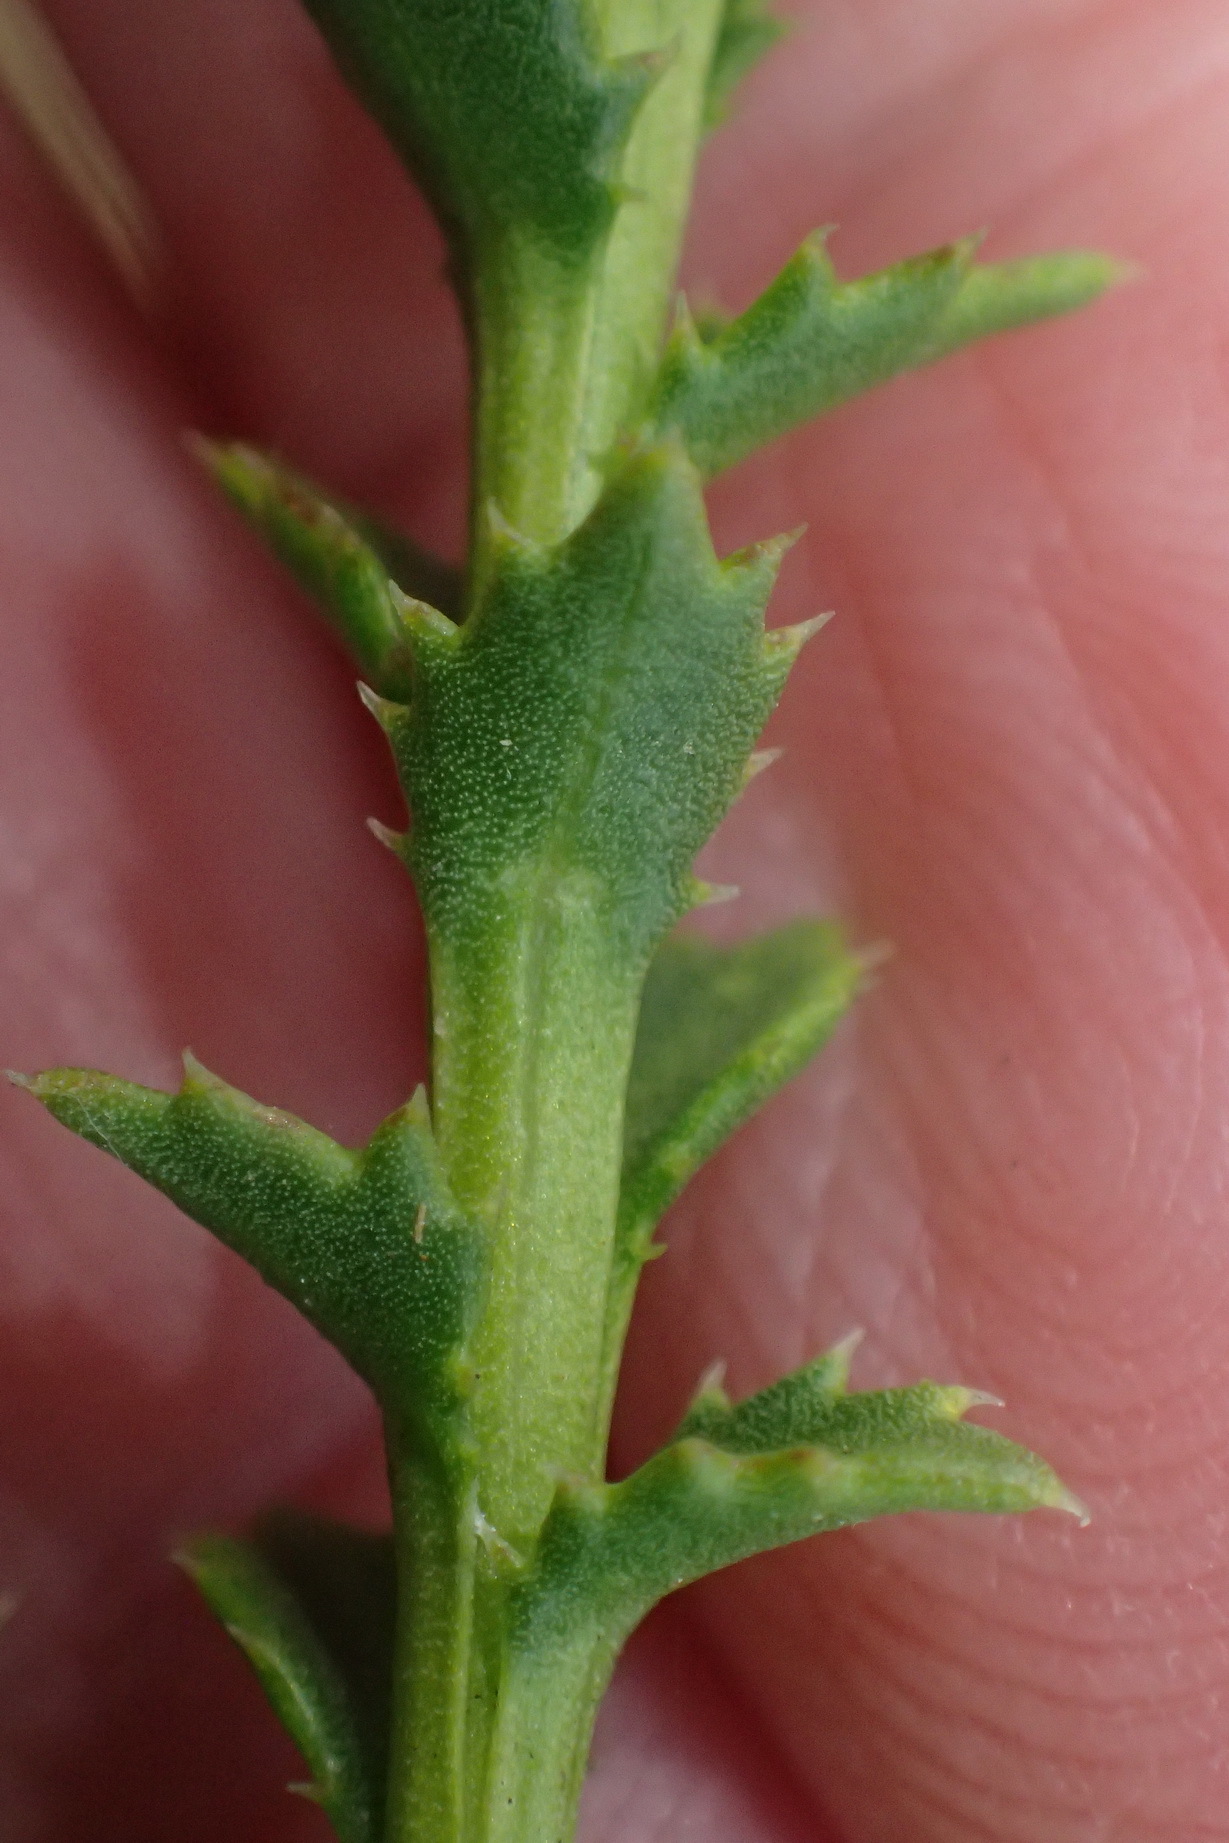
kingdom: Plantae
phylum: Tracheophyta
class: Magnoliopsida
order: Asterales
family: Asteraceae
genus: Athanasia
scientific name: Athanasia dentata
